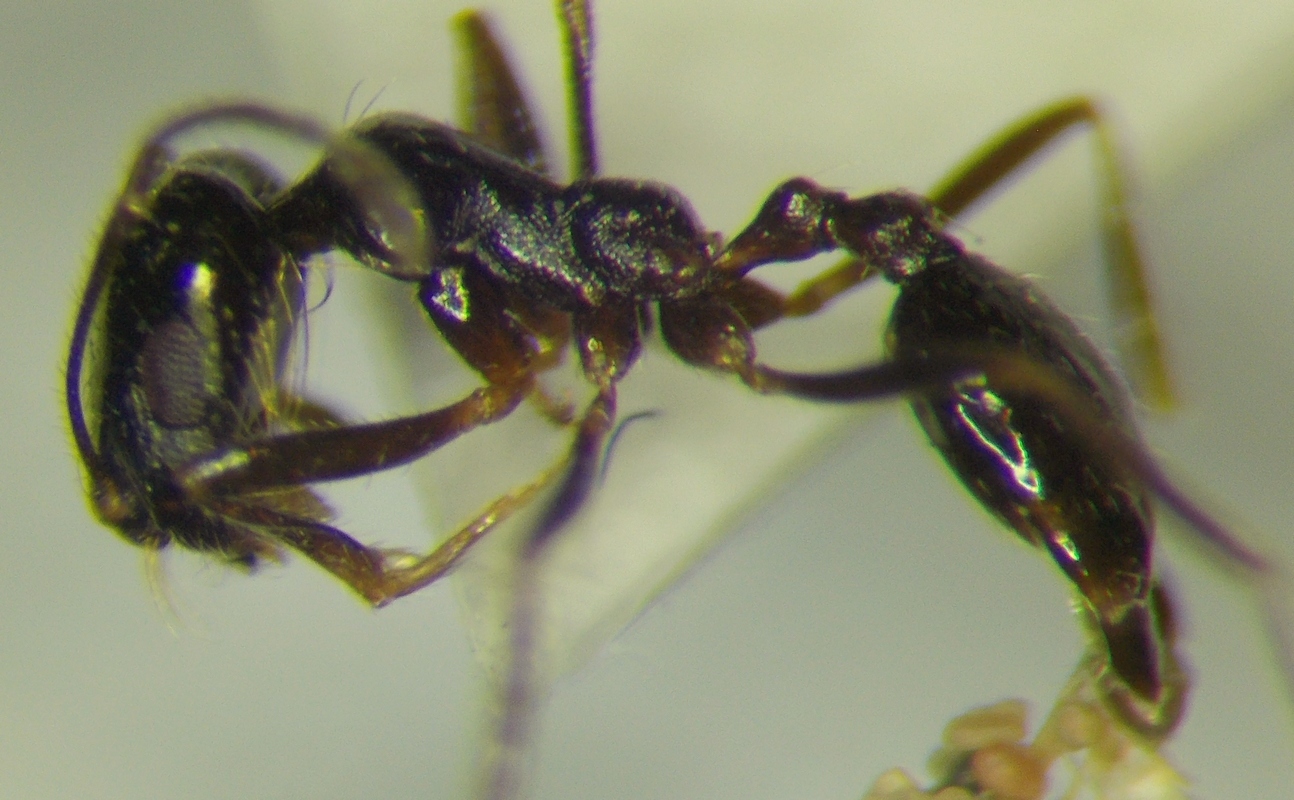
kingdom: Animalia
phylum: Arthropoda
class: Insecta
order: Hymenoptera
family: Formicidae
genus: Monomorium
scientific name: Monomorium barbatulum
